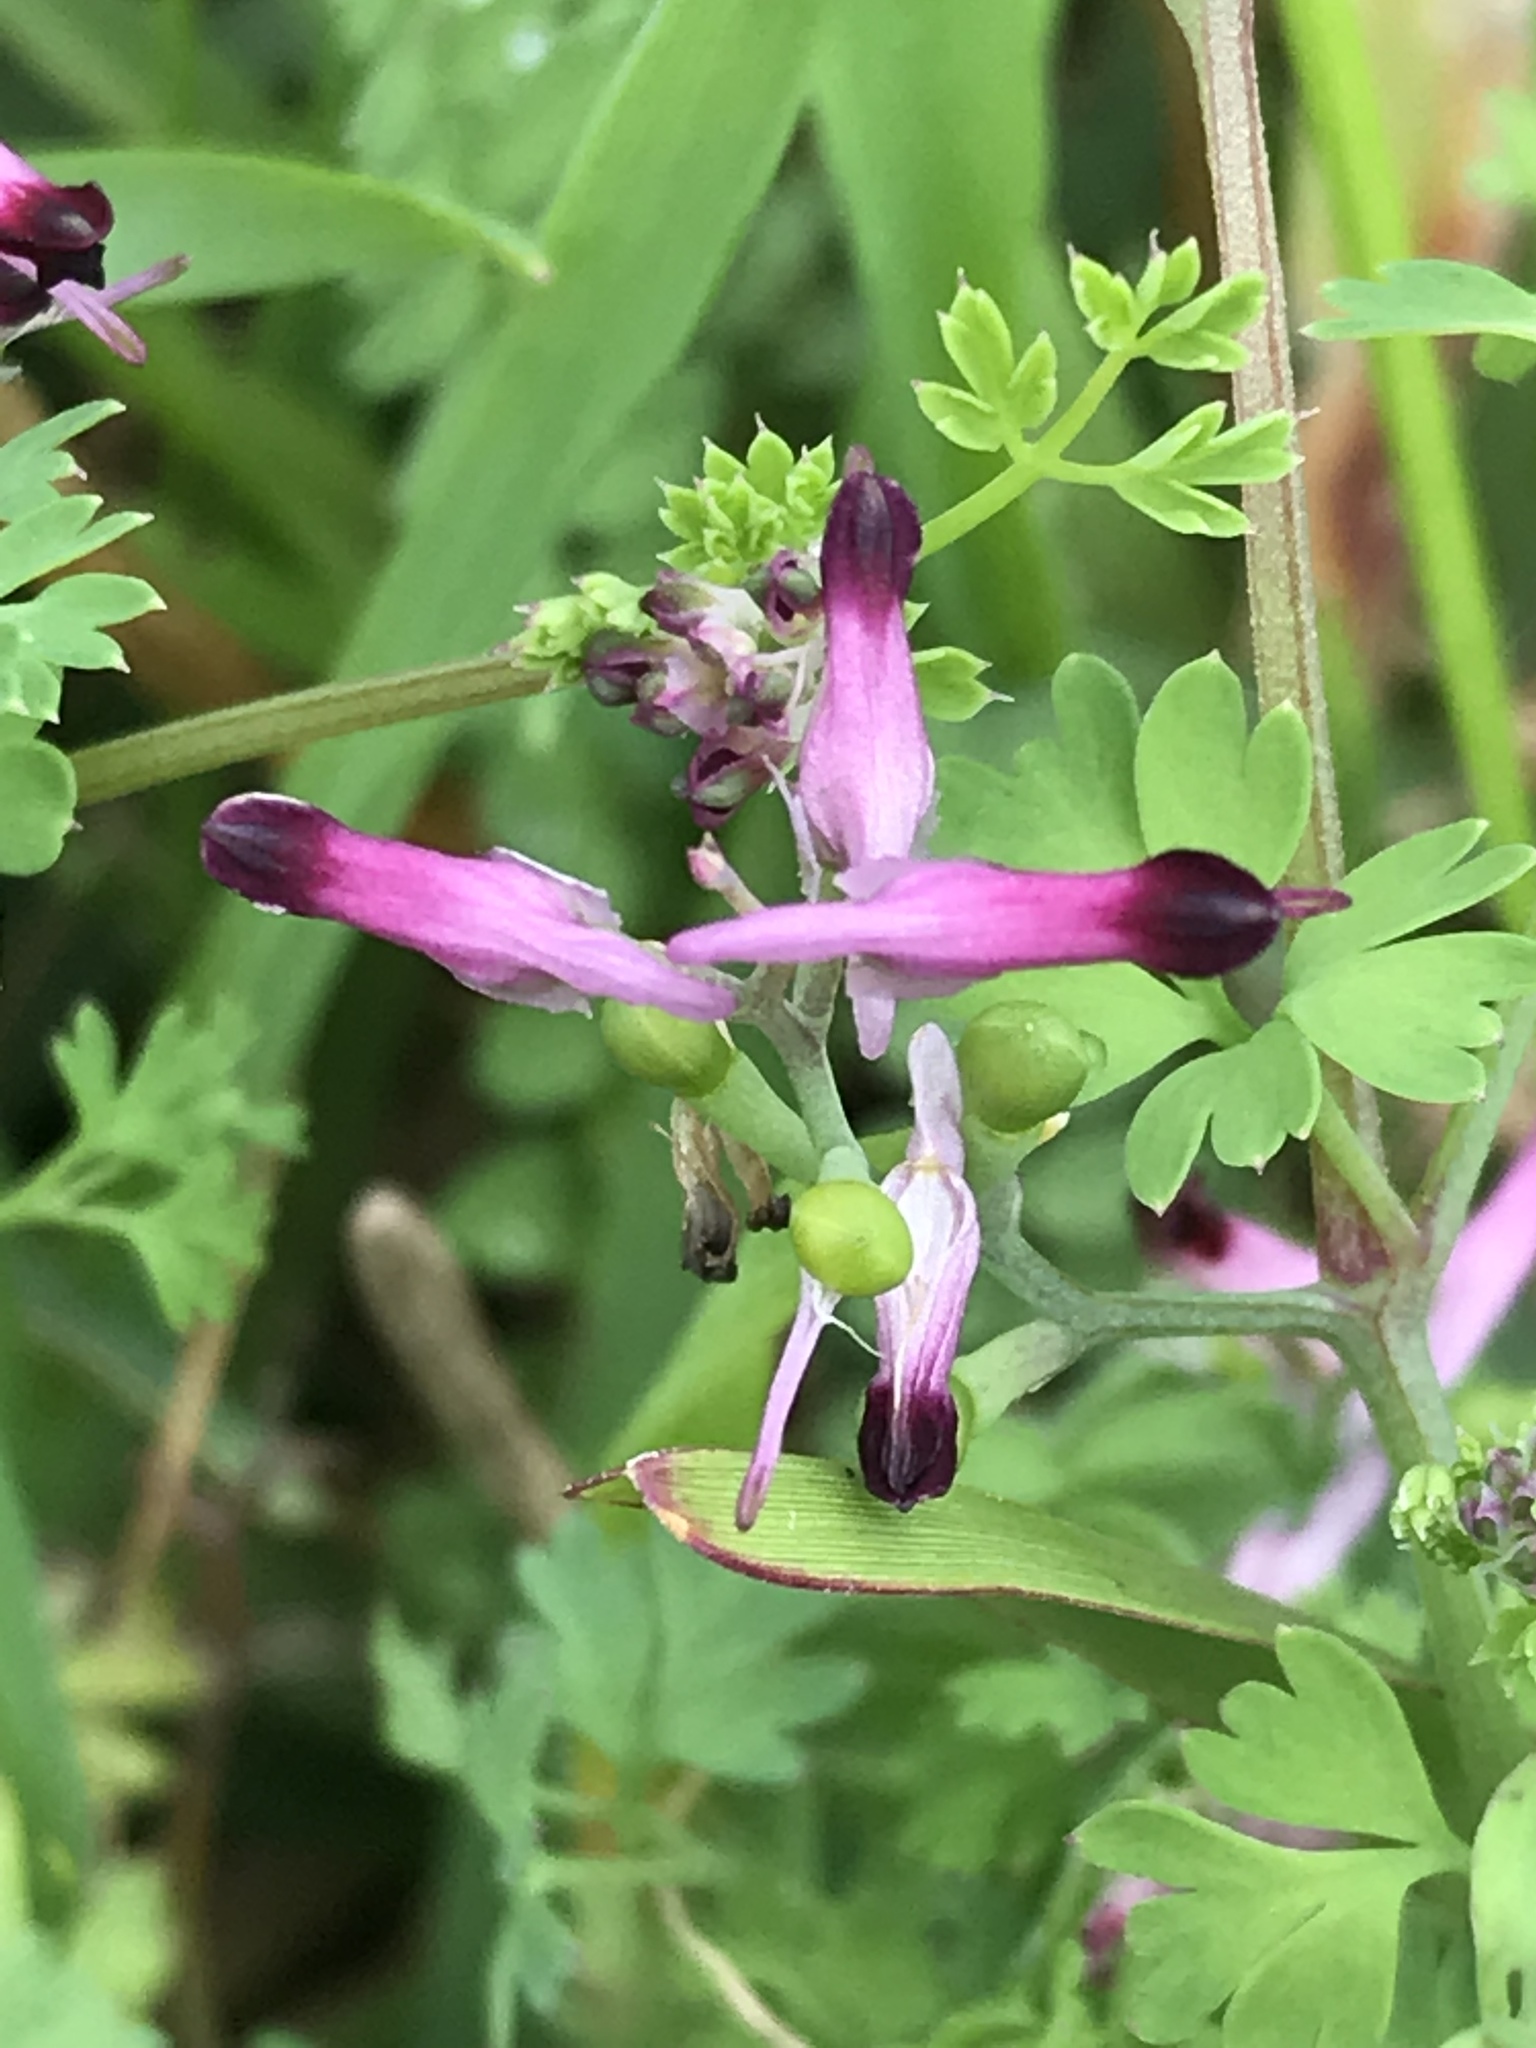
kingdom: Plantae
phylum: Tracheophyta
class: Magnoliopsida
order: Ranunculales
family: Papaveraceae
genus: Fumaria
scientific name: Fumaria muralis
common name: Common ramping-fumitory
